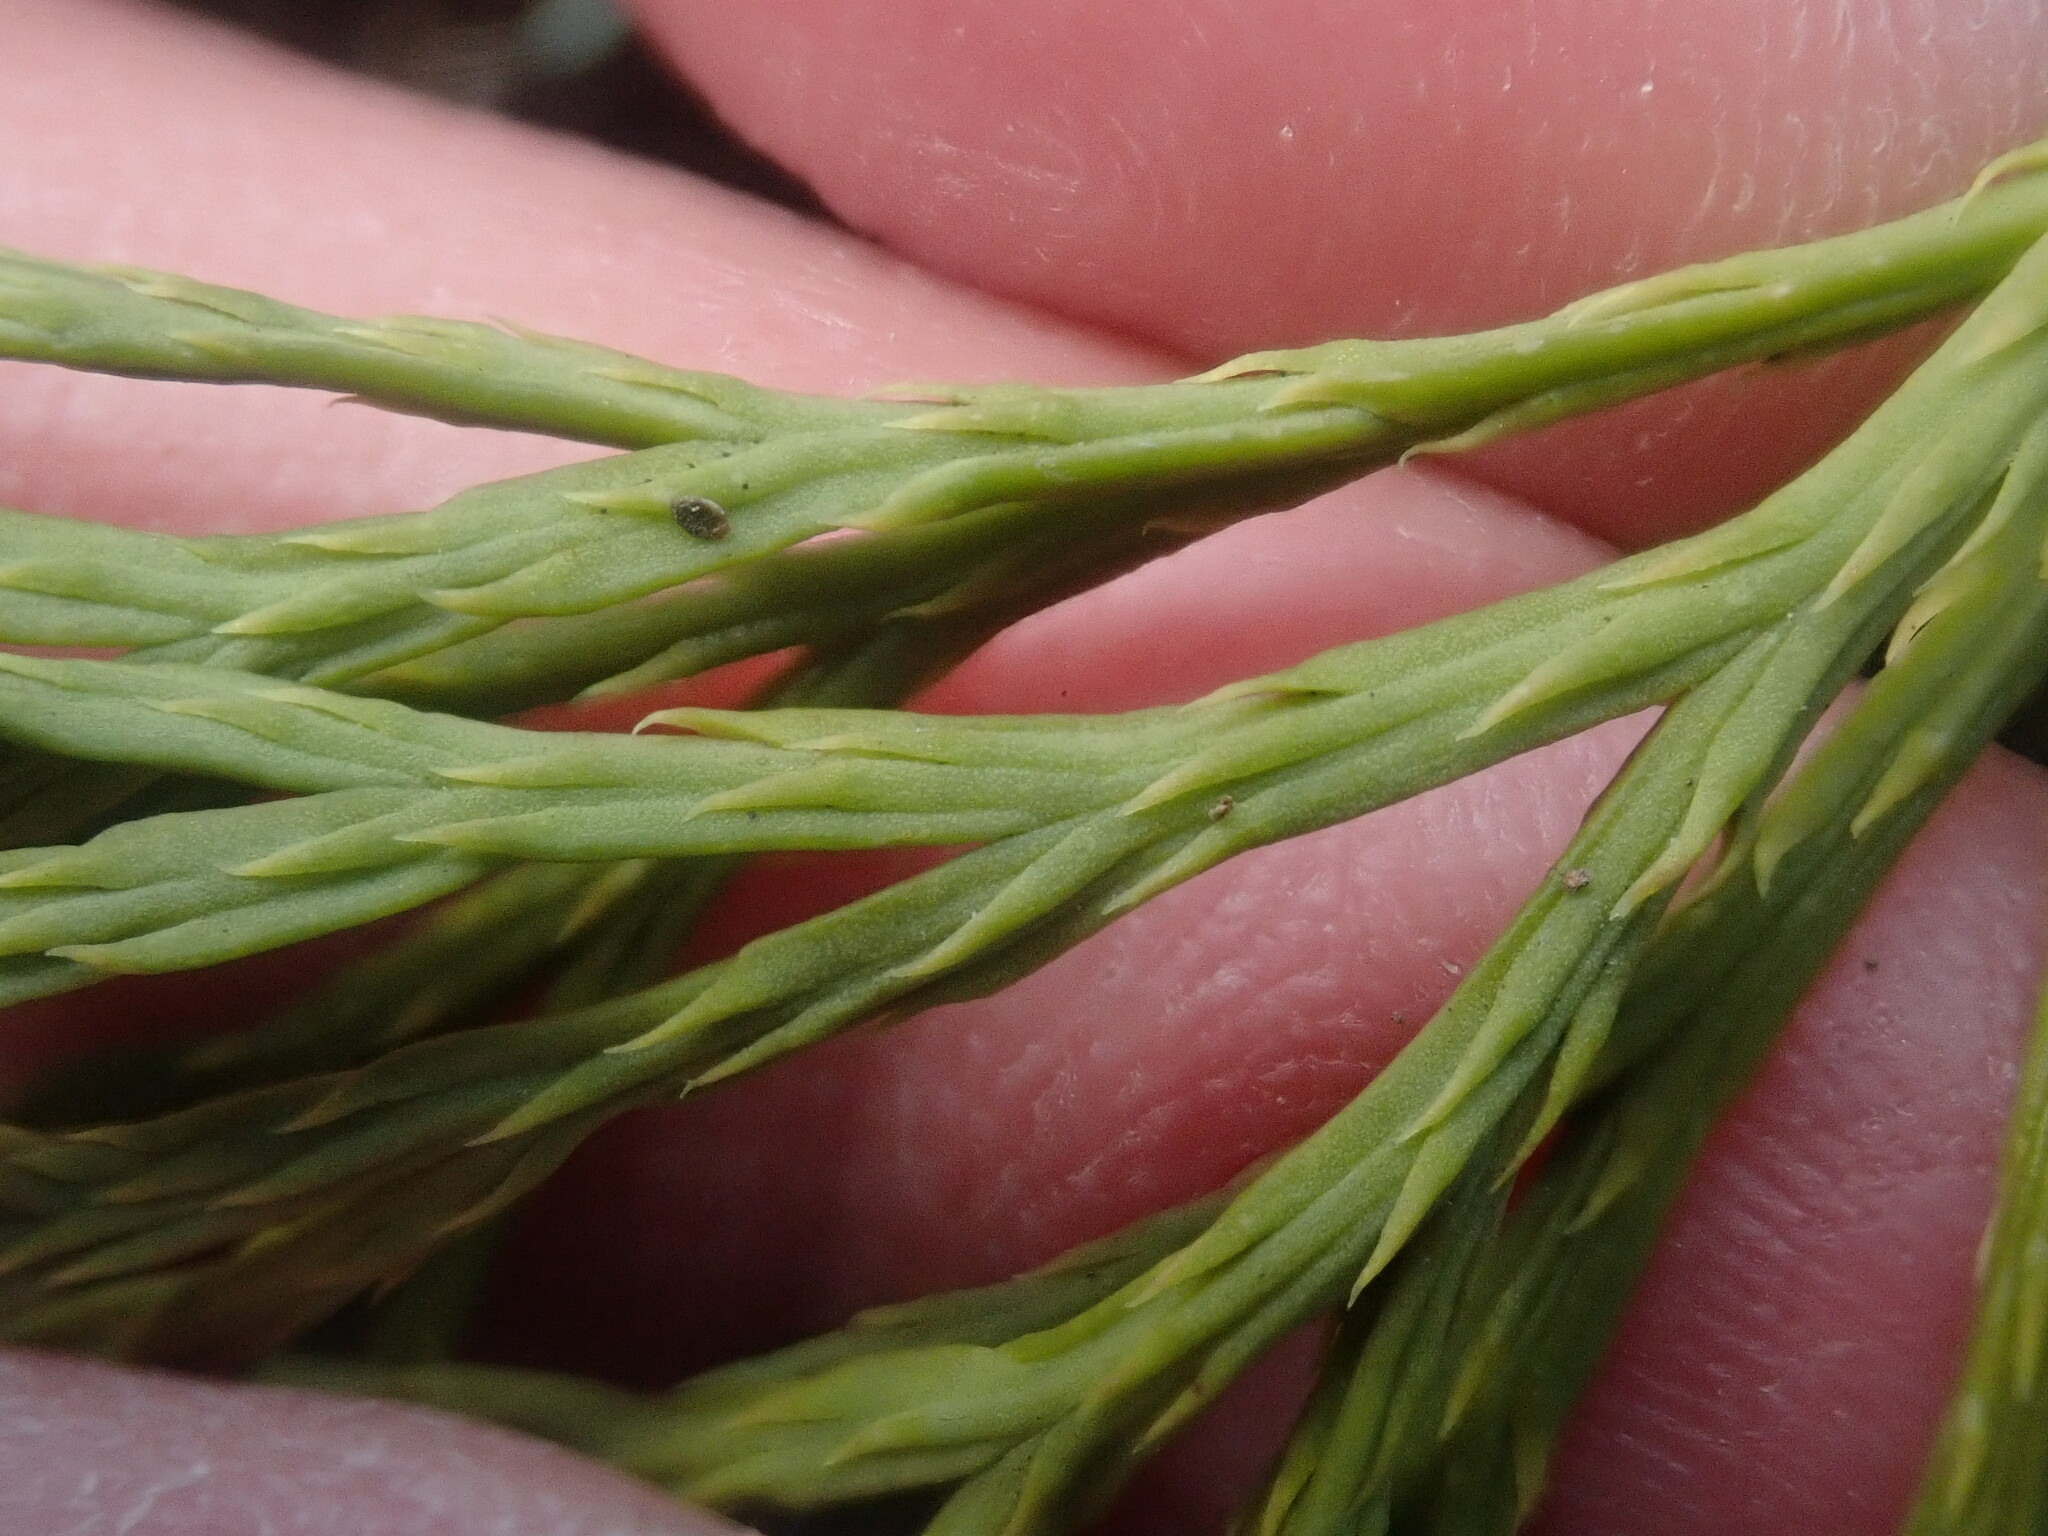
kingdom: Plantae
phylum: Tracheophyta
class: Lycopodiopsida
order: Lycopodiales
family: Lycopodiaceae
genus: Diphasiastrum
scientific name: Diphasiastrum tristachyum
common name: Blue ground-cedar
